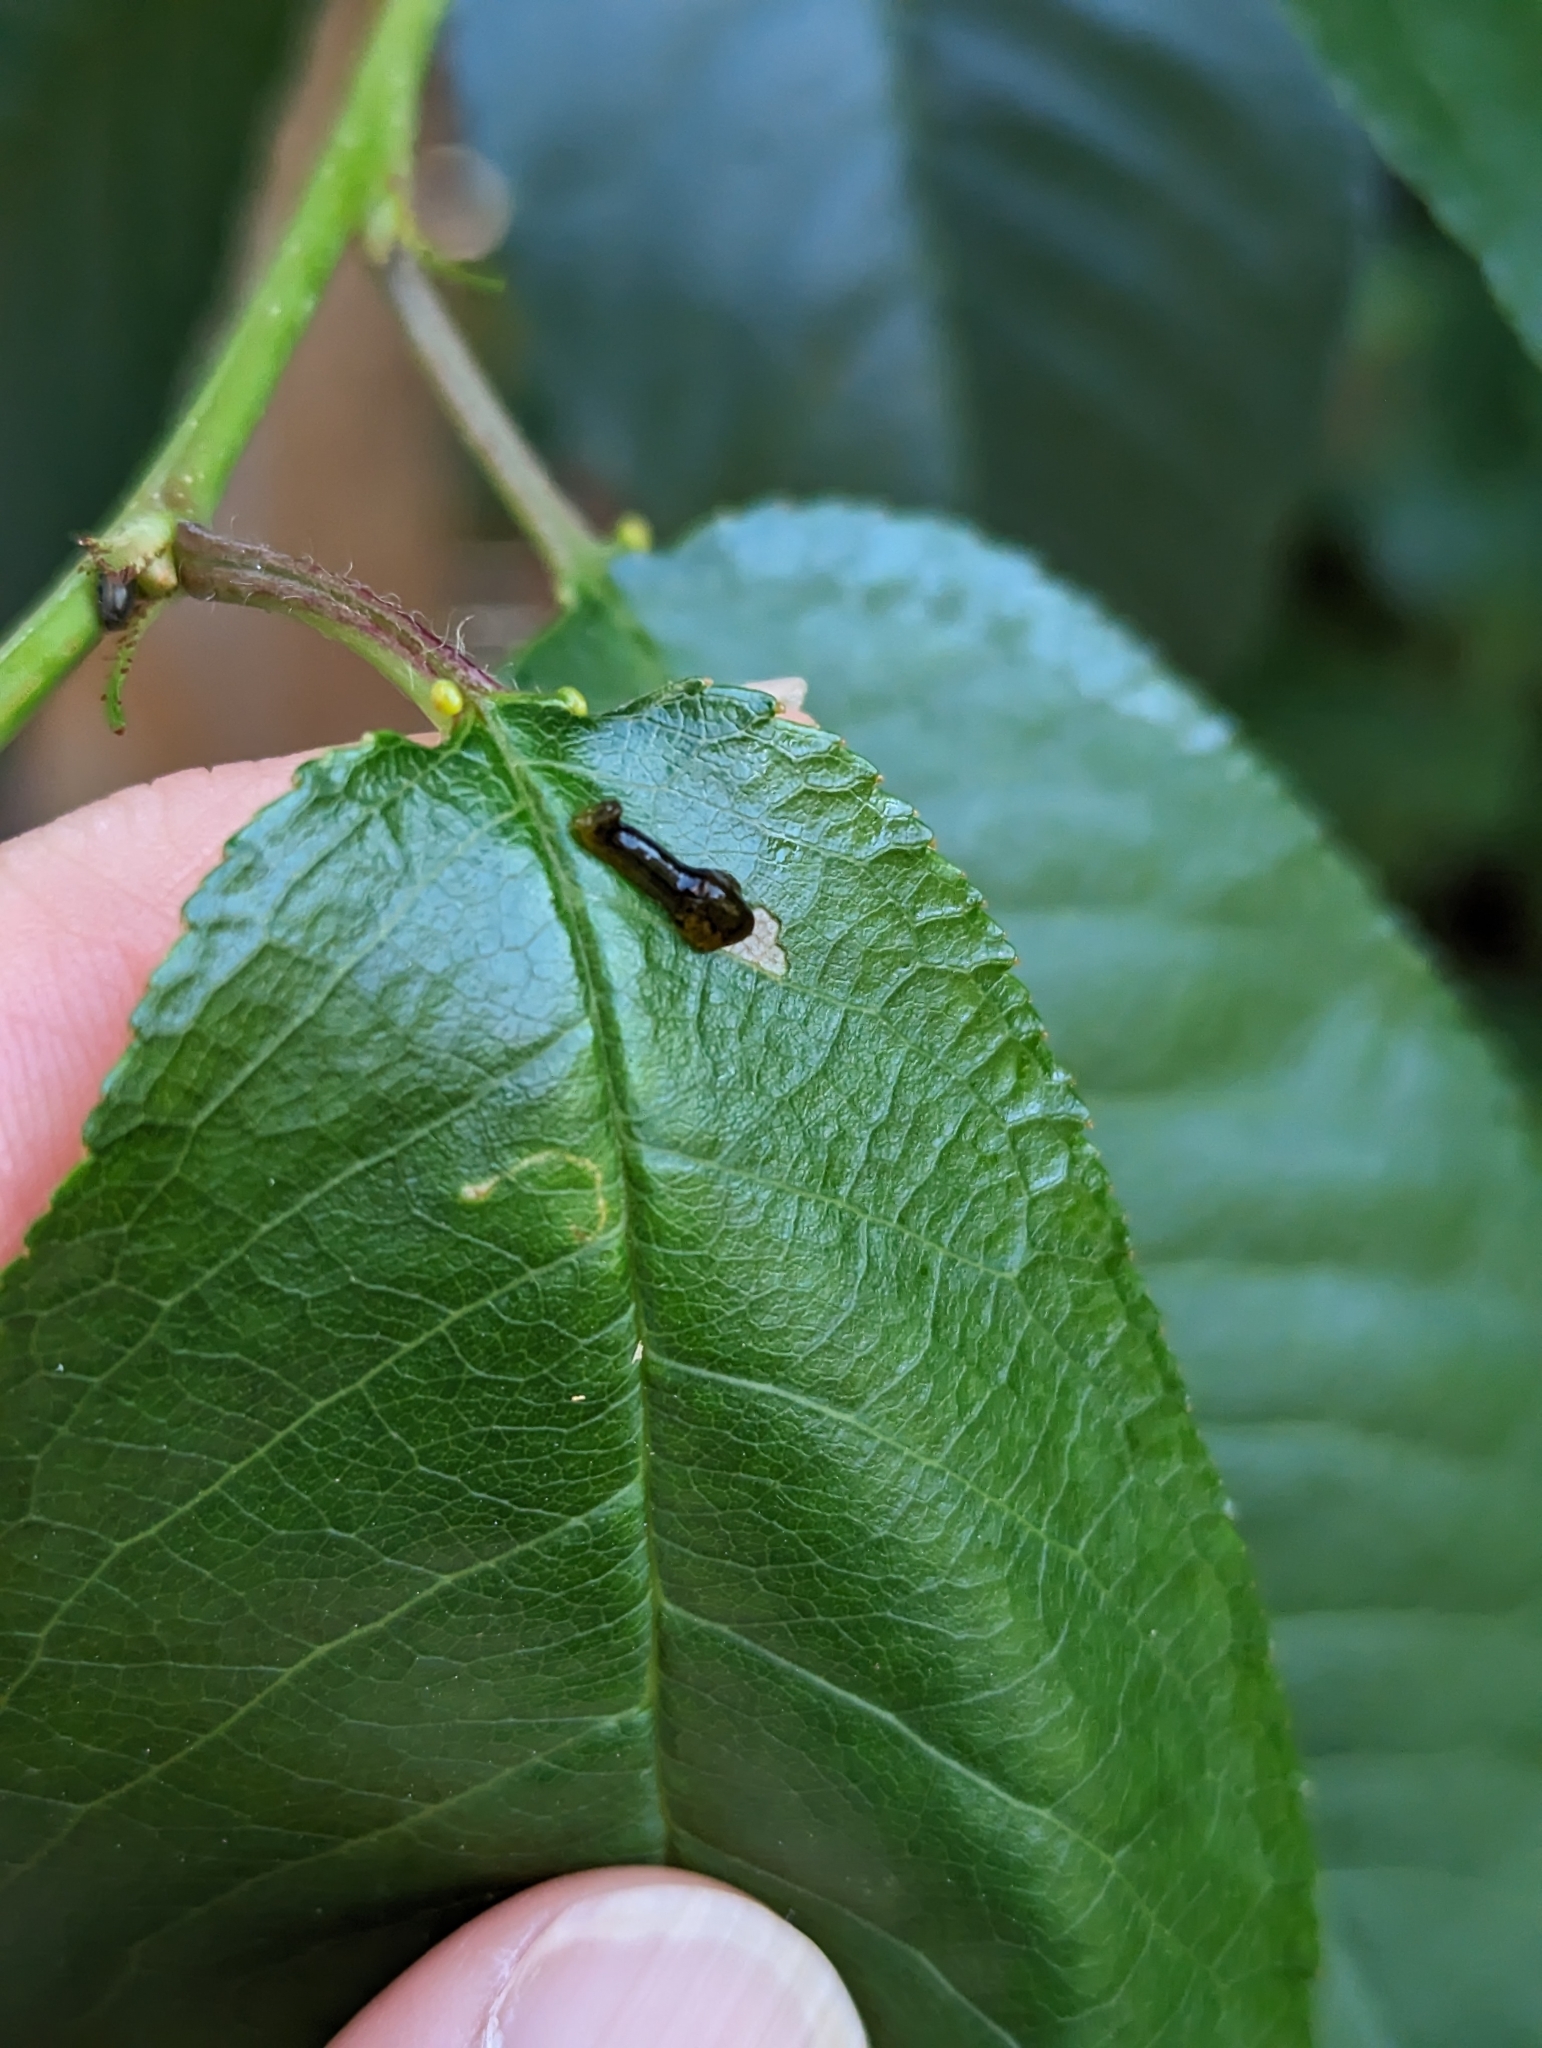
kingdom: Animalia
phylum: Arthropoda
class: Insecta
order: Hymenoptera
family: Tenthredinidae
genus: Caliroa
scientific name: Caliroa cerasi
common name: Pear sawfly
